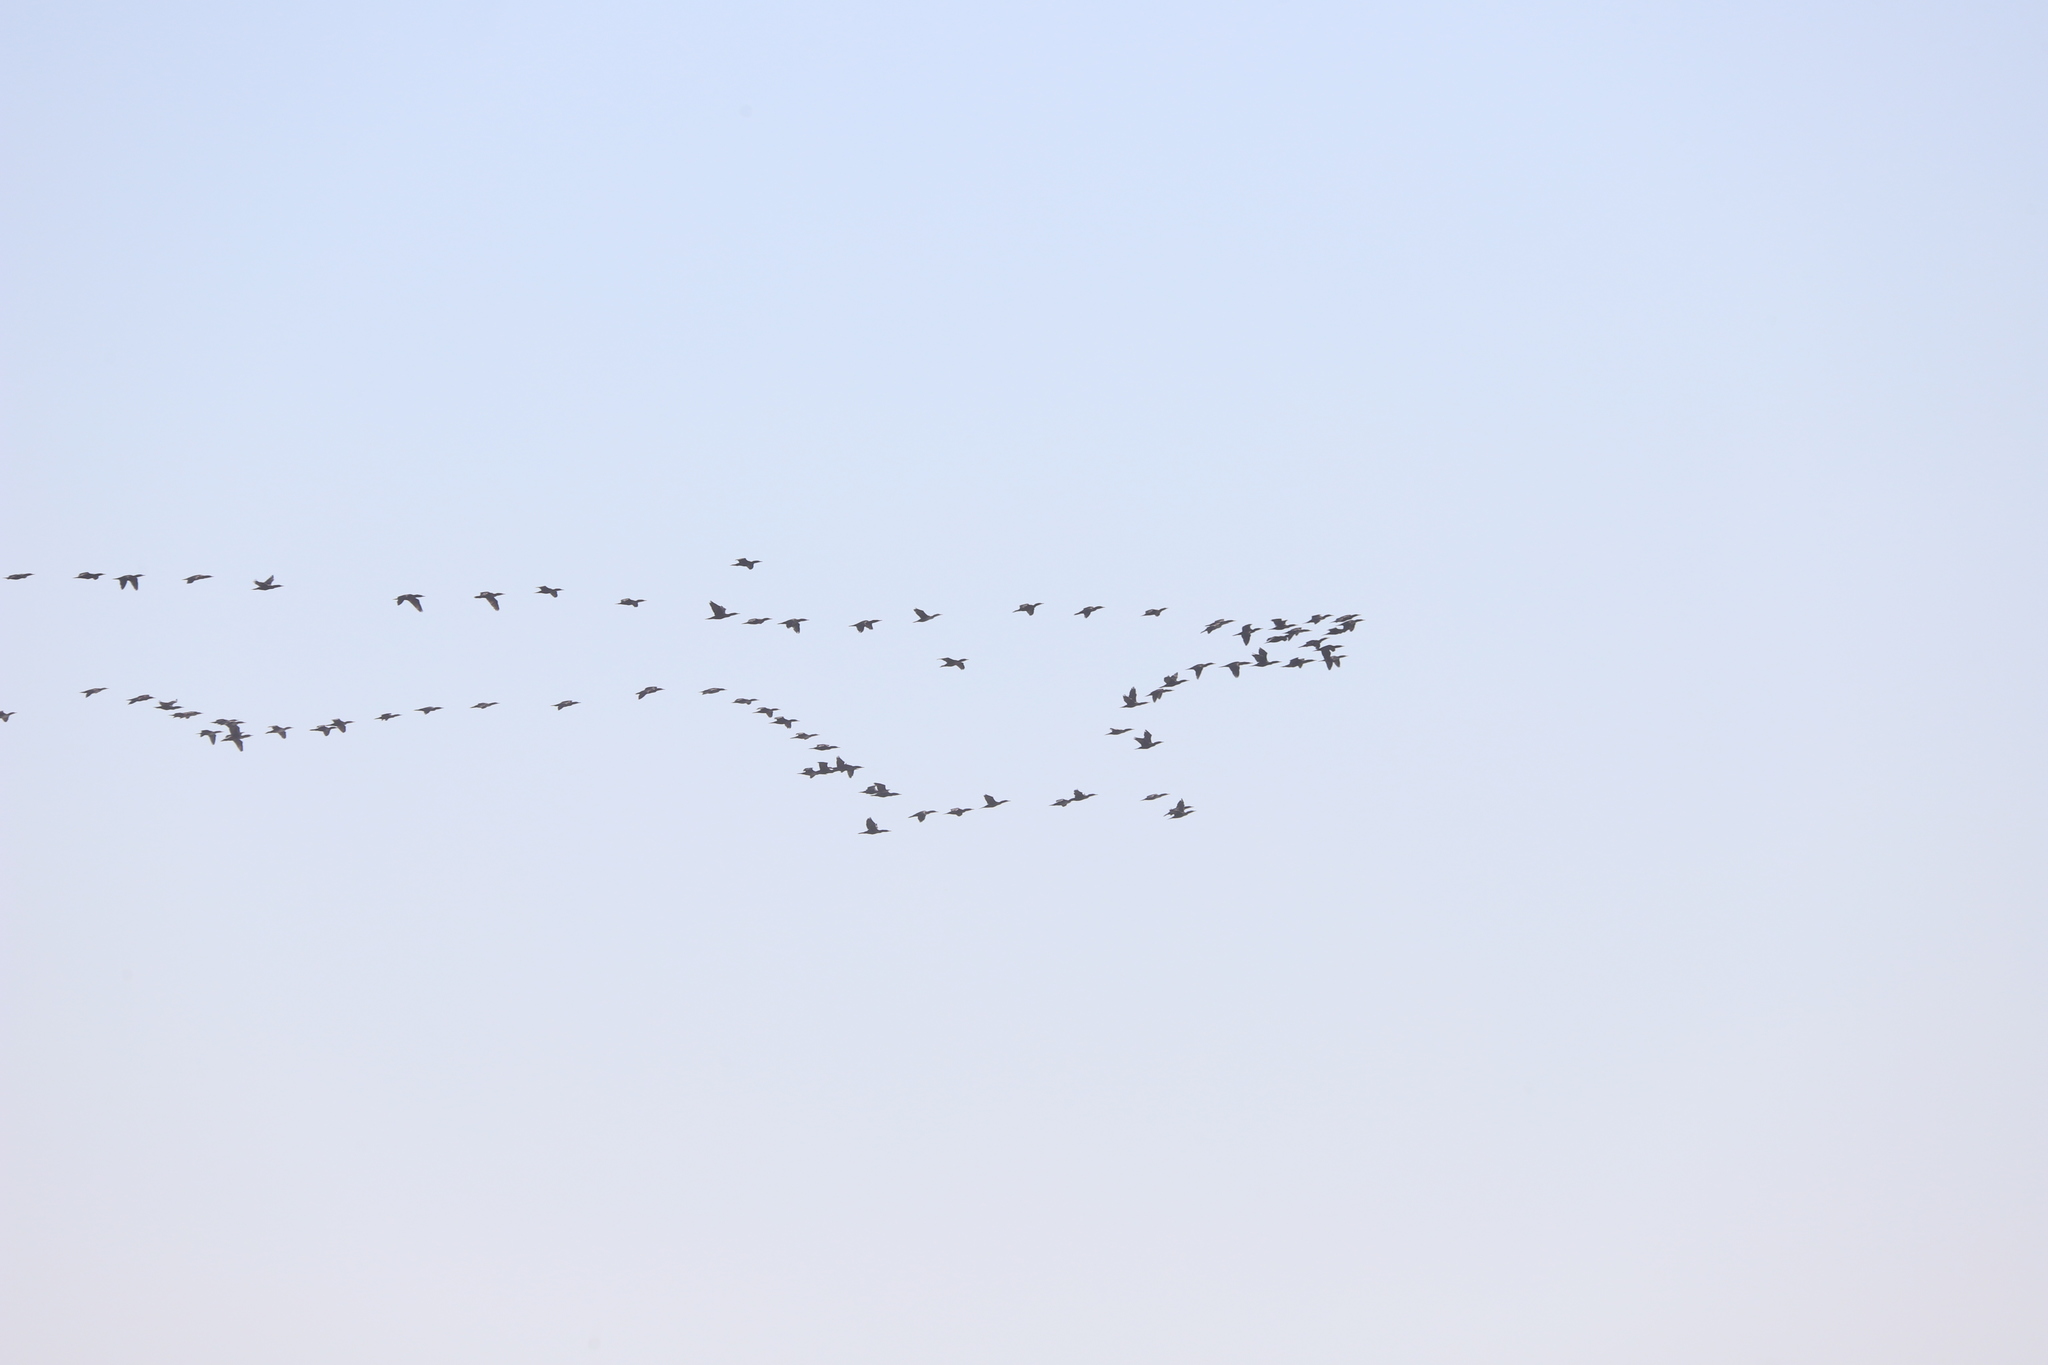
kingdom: Animalia
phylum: Chordata
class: Aves
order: Suliformes
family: Phalacrocoracidae
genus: Phalacrocorax
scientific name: Phalacrocorax auritus
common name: Double-crested cormorant
